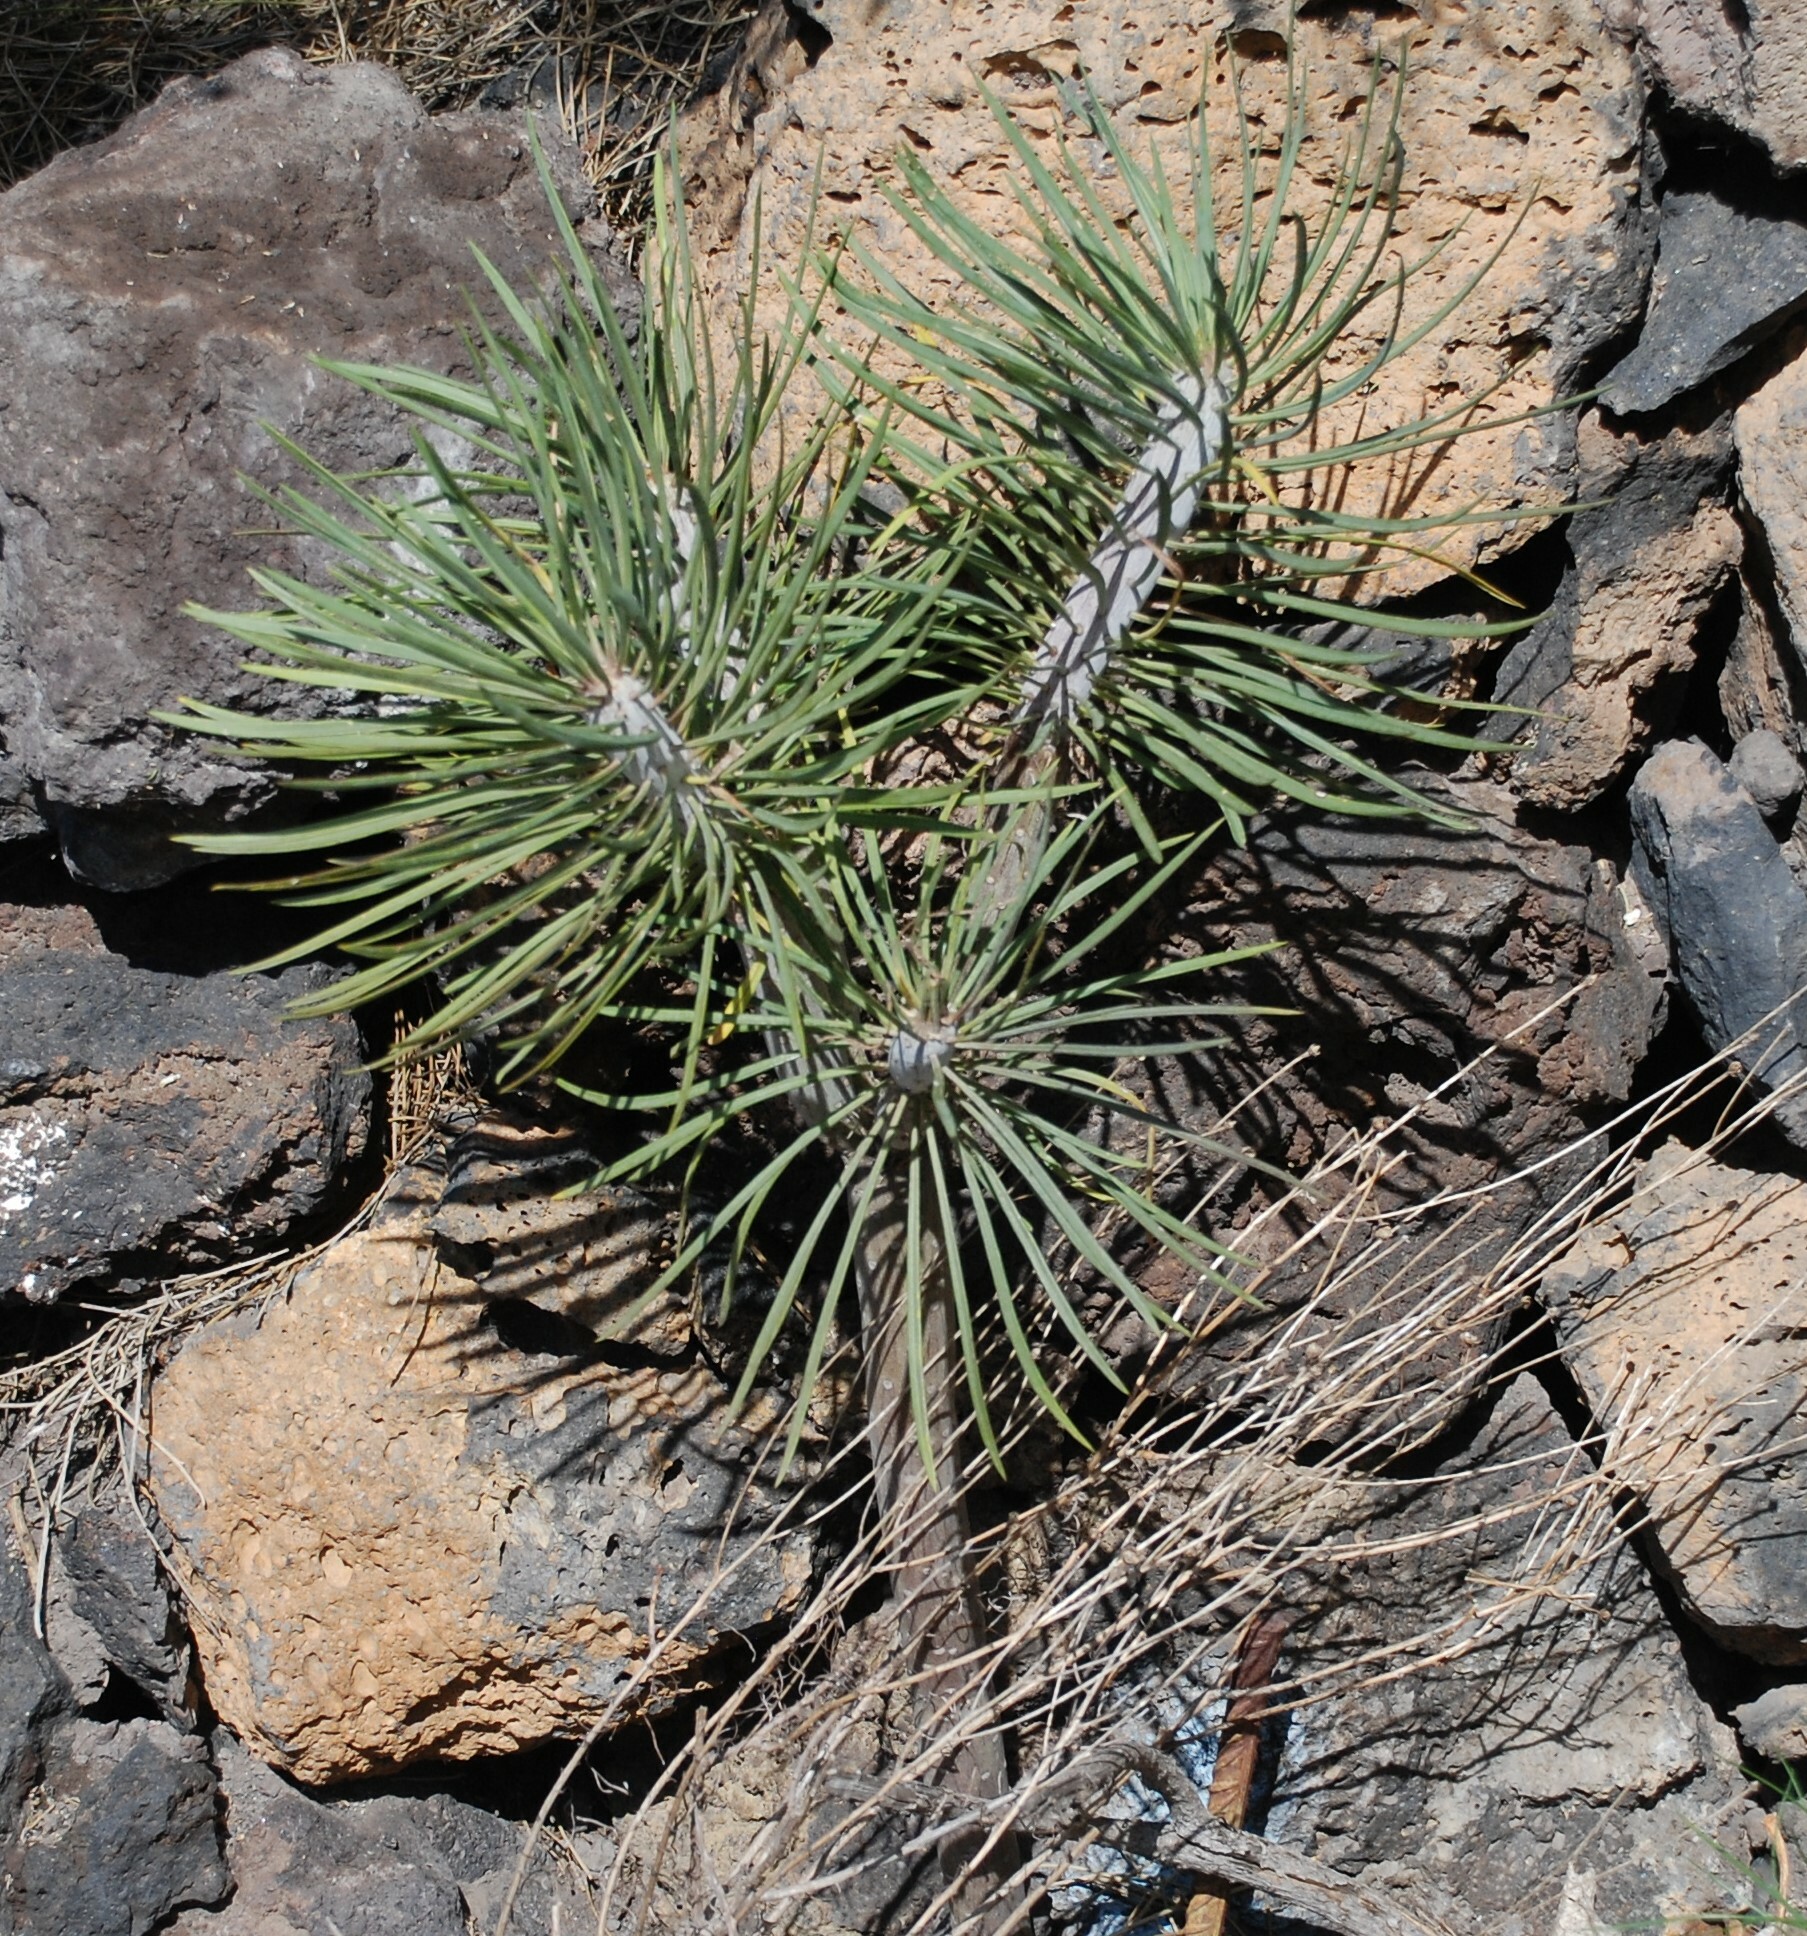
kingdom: Plantae
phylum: Tracheophyta
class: Magnoliopsida
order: Asterales
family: Asteraceae
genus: Kleinia
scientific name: Kleinia neriifolia
